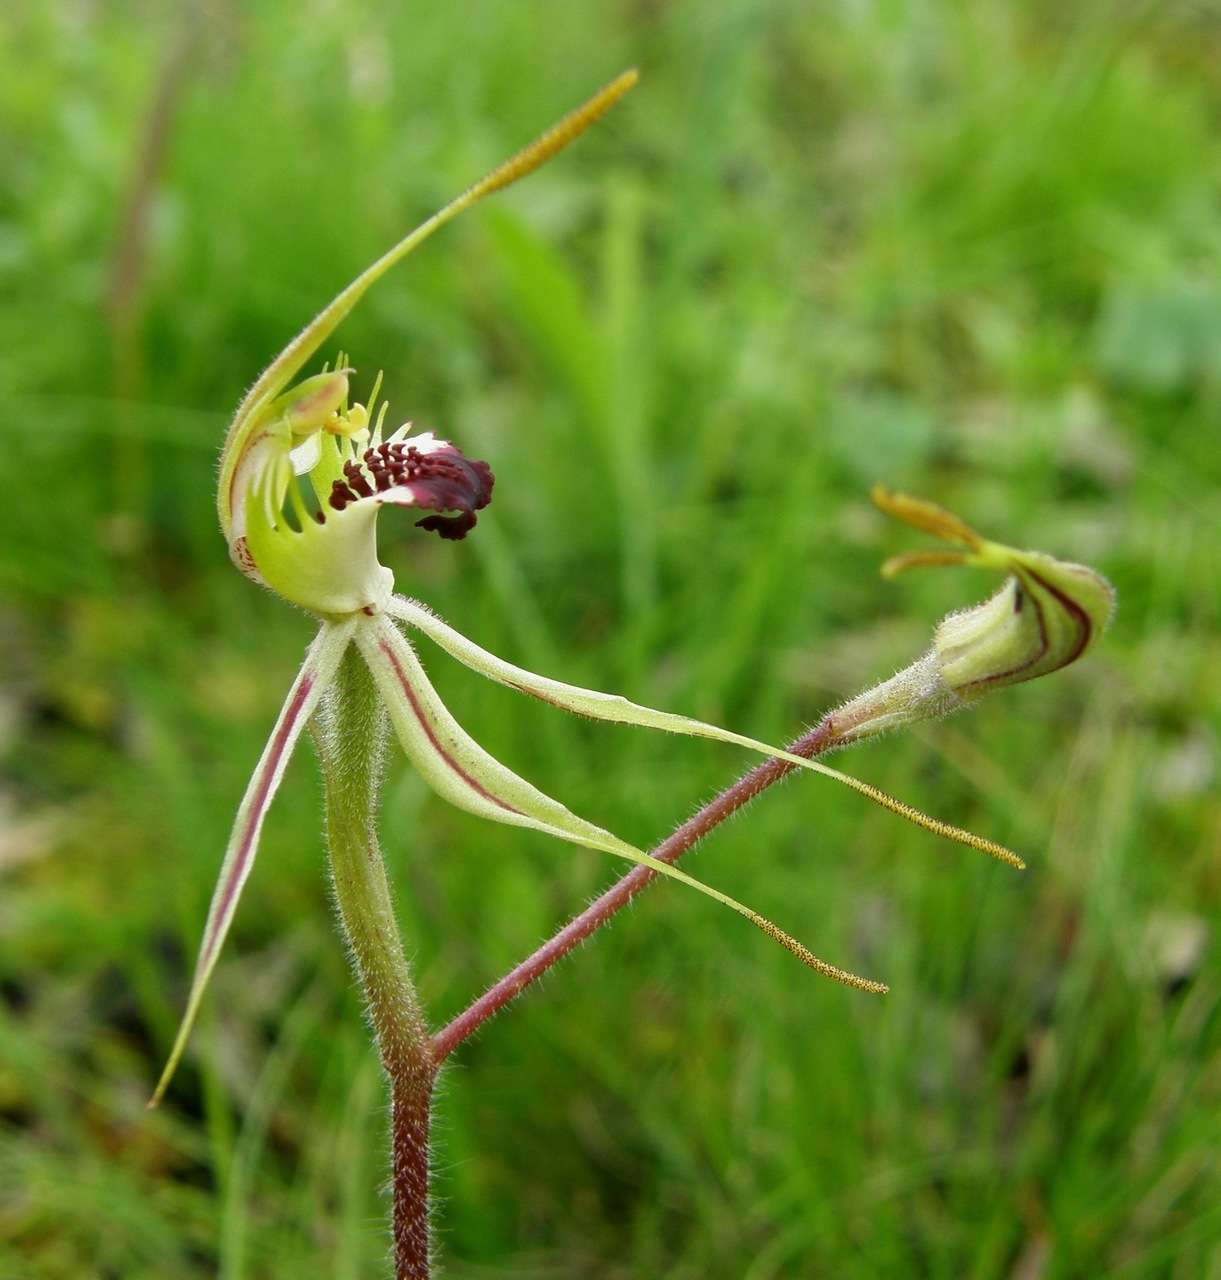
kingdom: Plantae
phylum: Tracheophyta
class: Liliopsida
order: Asparagales
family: Orchidaceae
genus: Caladenia
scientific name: Caladenia parva
